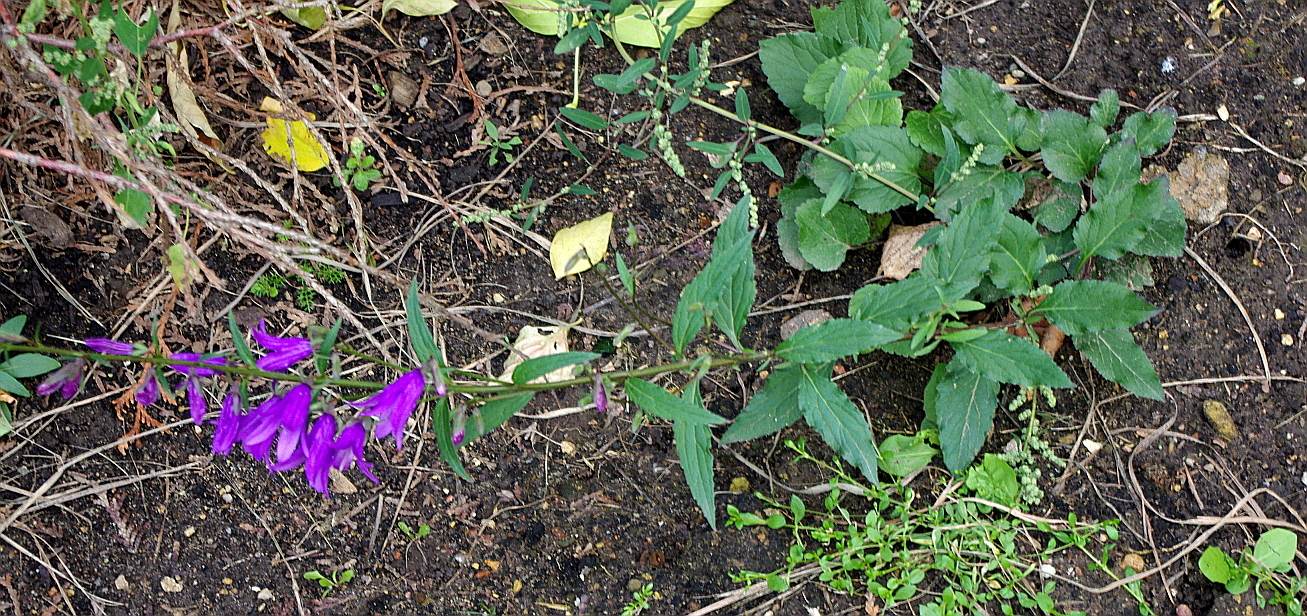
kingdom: Plantae
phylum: Tracheophyta
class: Magnoliopsida
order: Asterales
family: Campanulaceae
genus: Campanula
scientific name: Campanula rapunculoides
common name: Creeping bellflower
